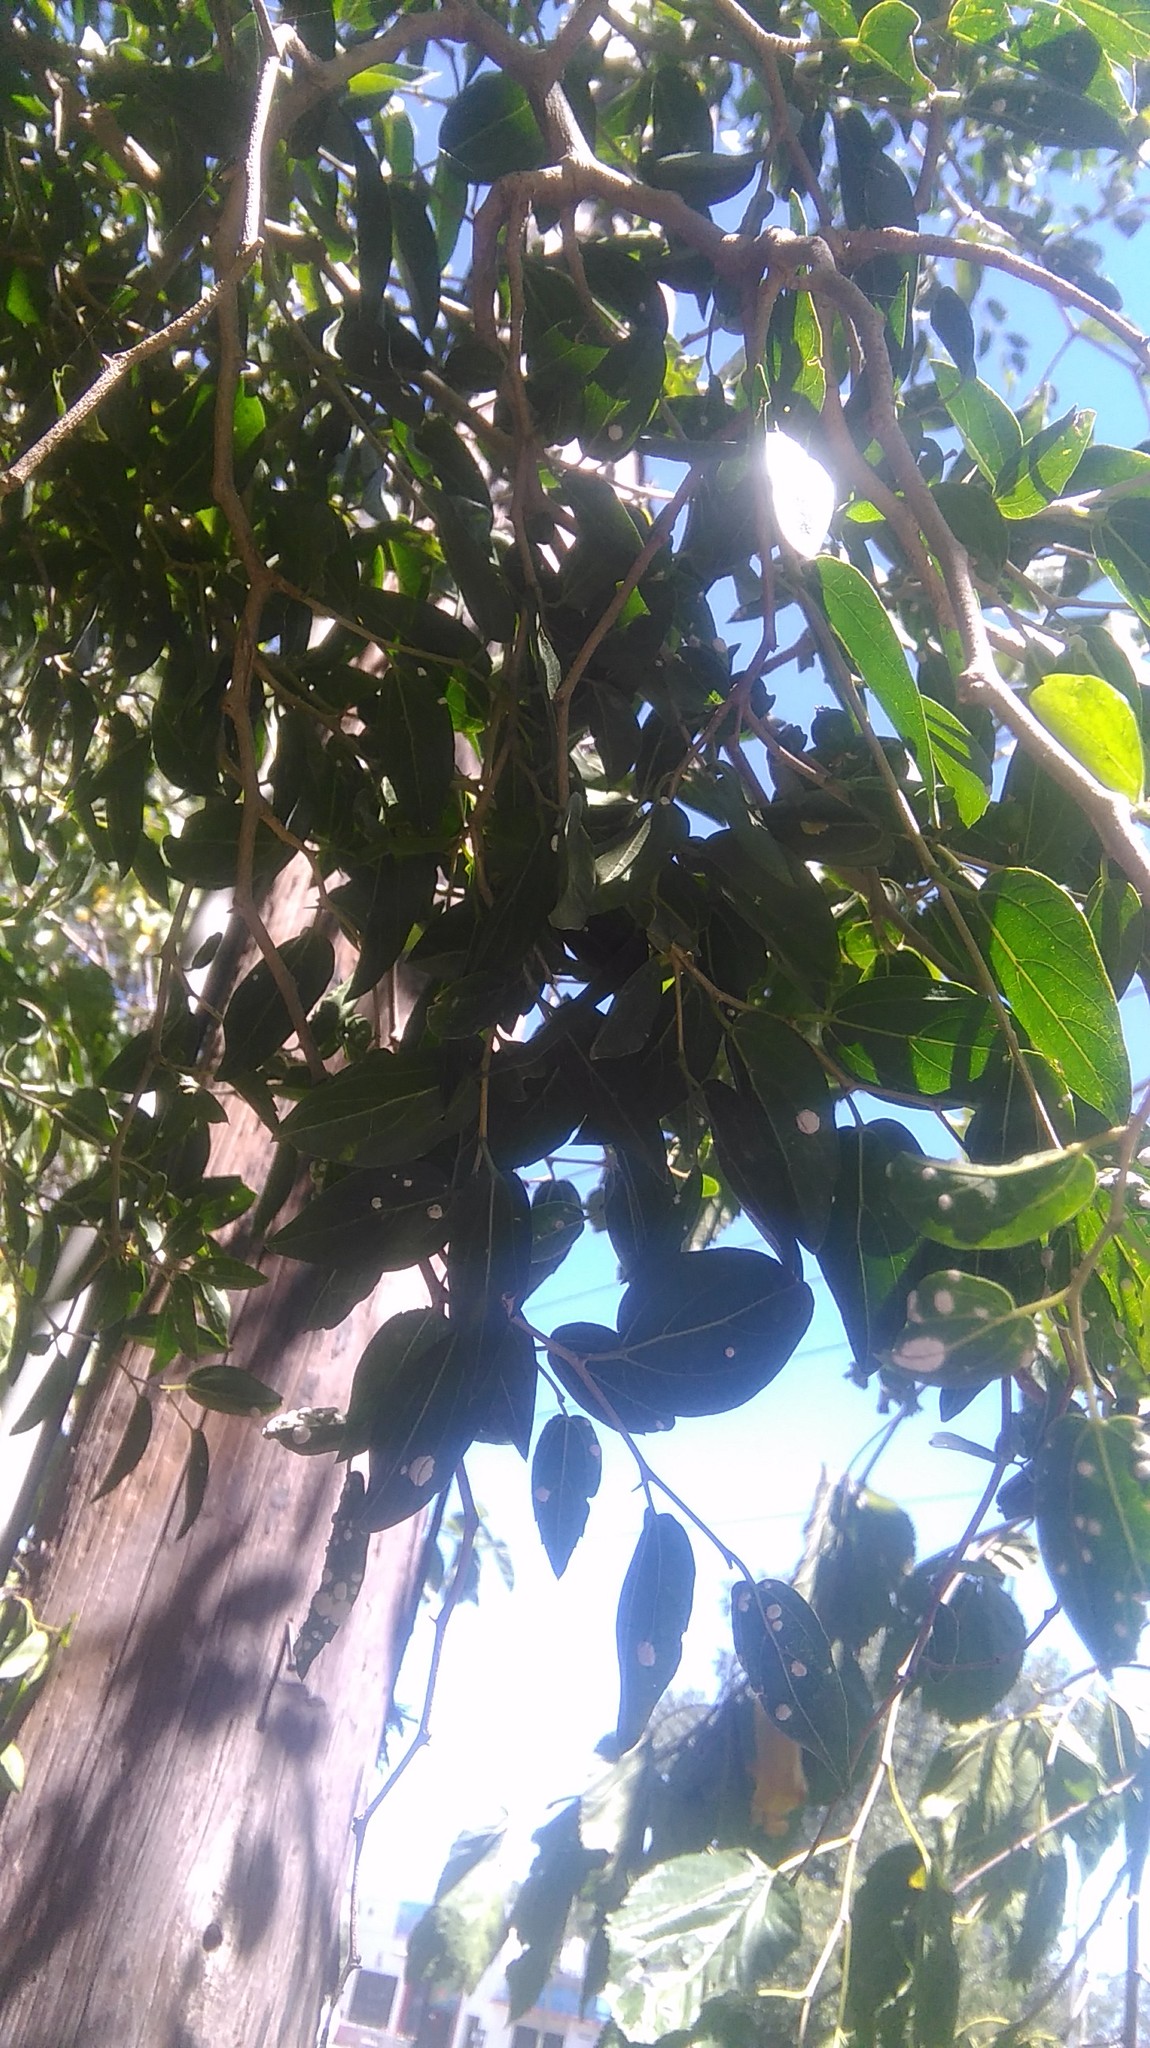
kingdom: Plantae
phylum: Tracheophyta
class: Magnoliopsida
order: Rosales
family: Cannabaceae
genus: Celtis
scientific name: Celtis tala
